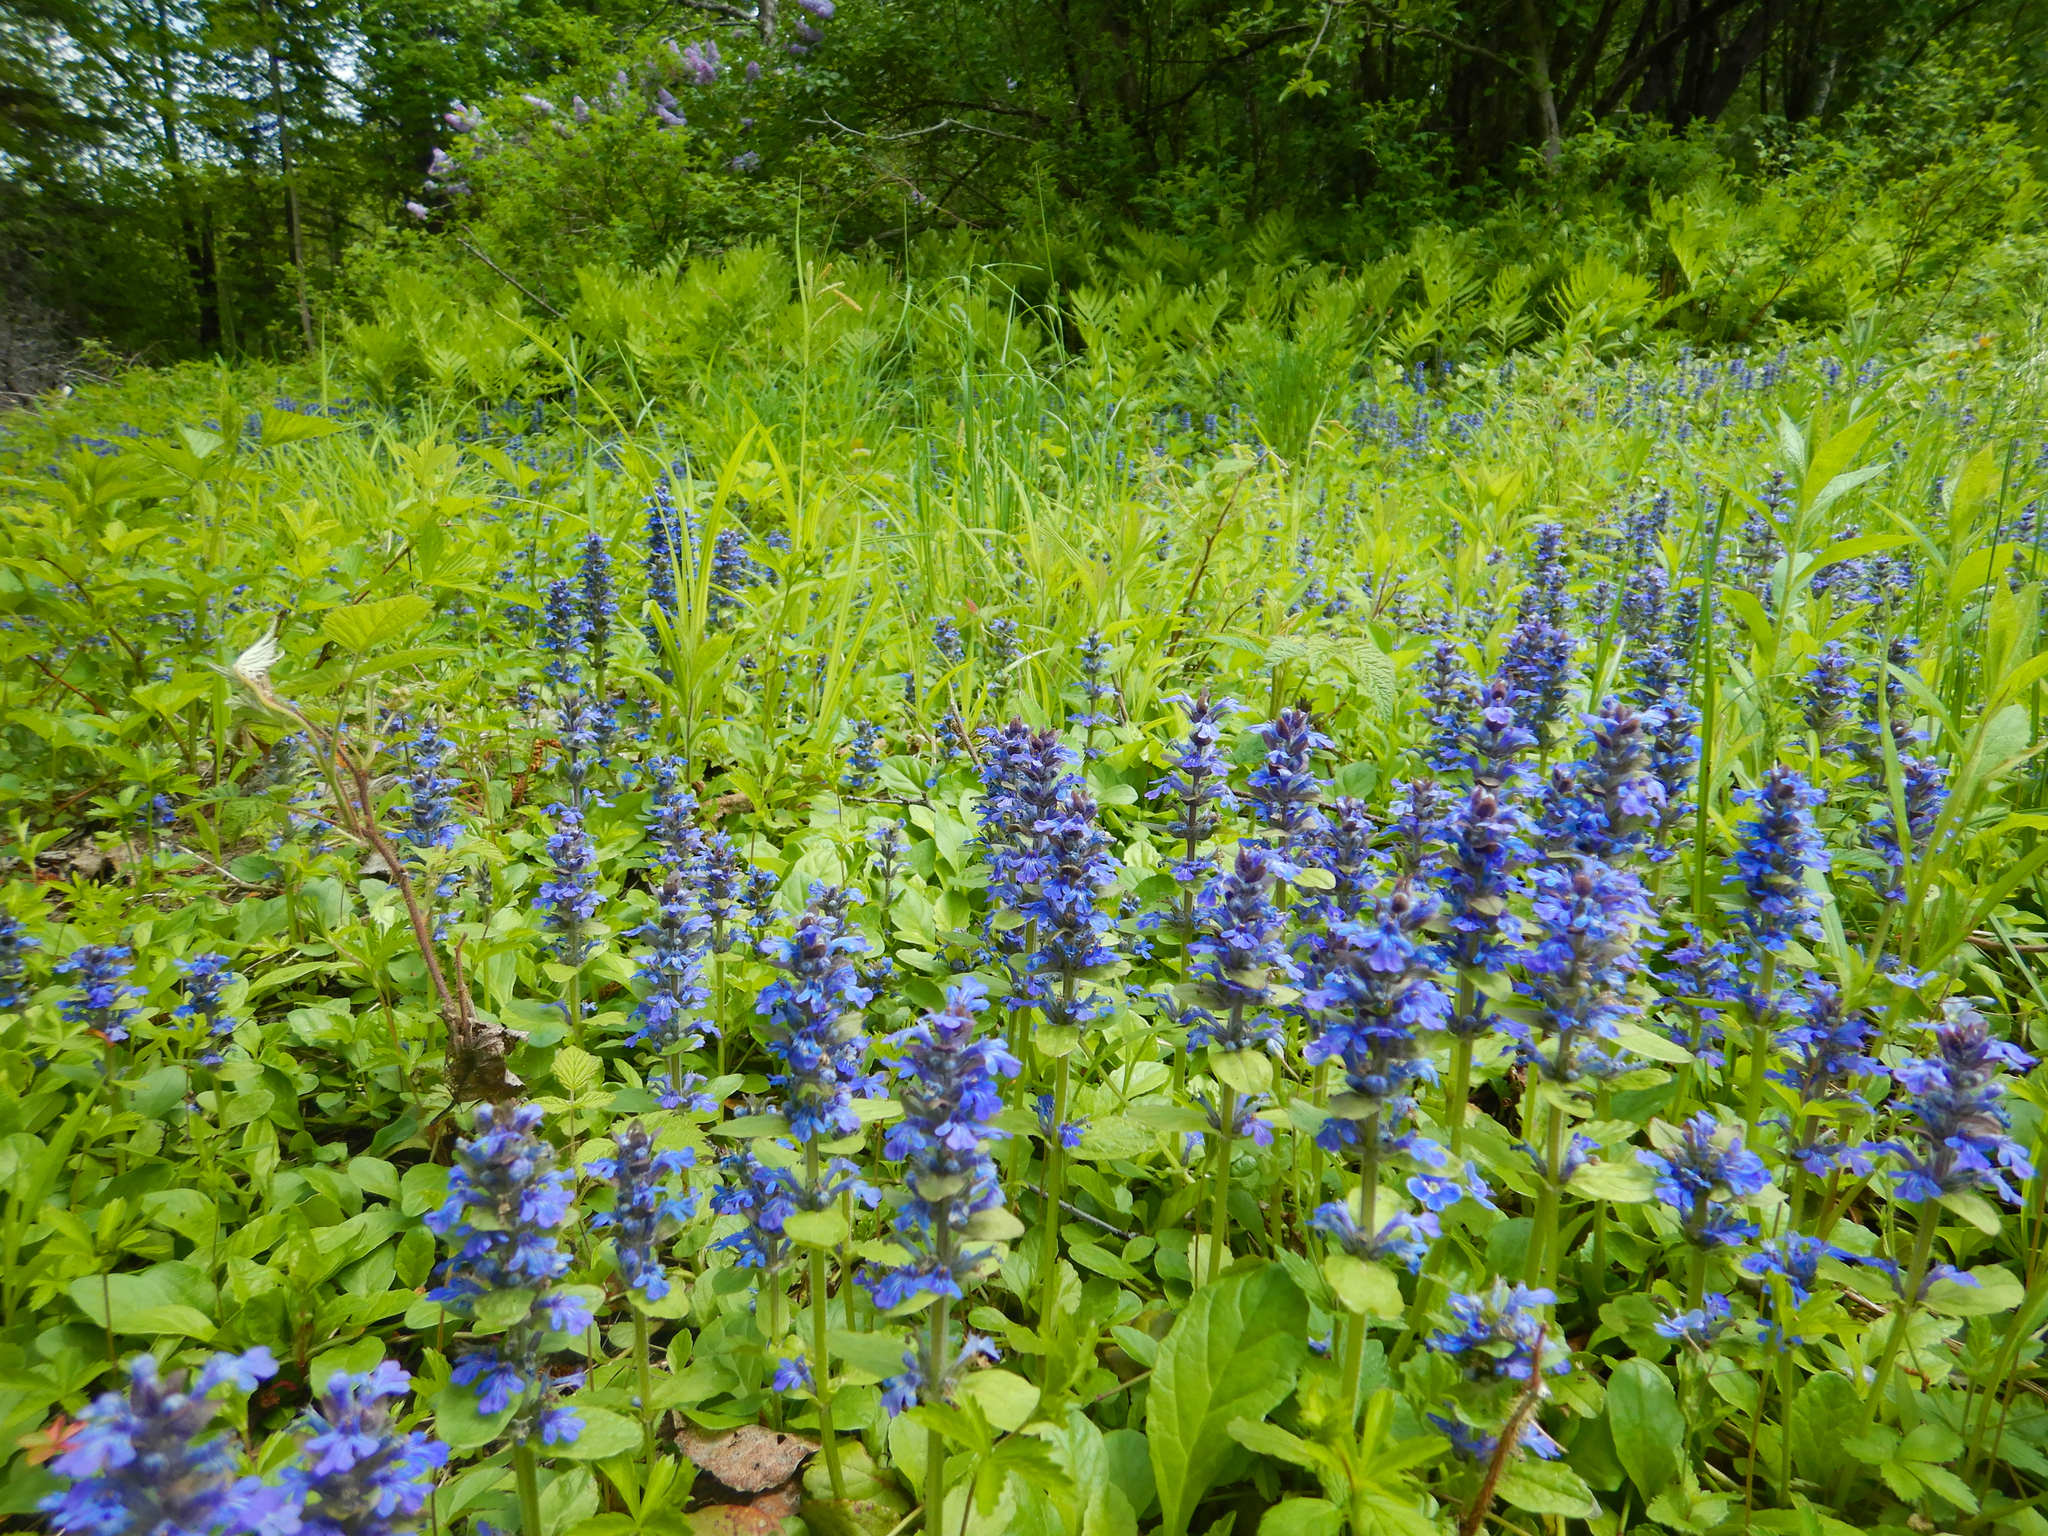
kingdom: Plantae
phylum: Tracheophyta
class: Magnoliopsida
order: Lamiales
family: Lamiaceae
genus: Ajuga
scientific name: Ajuga reptans
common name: Bugle
